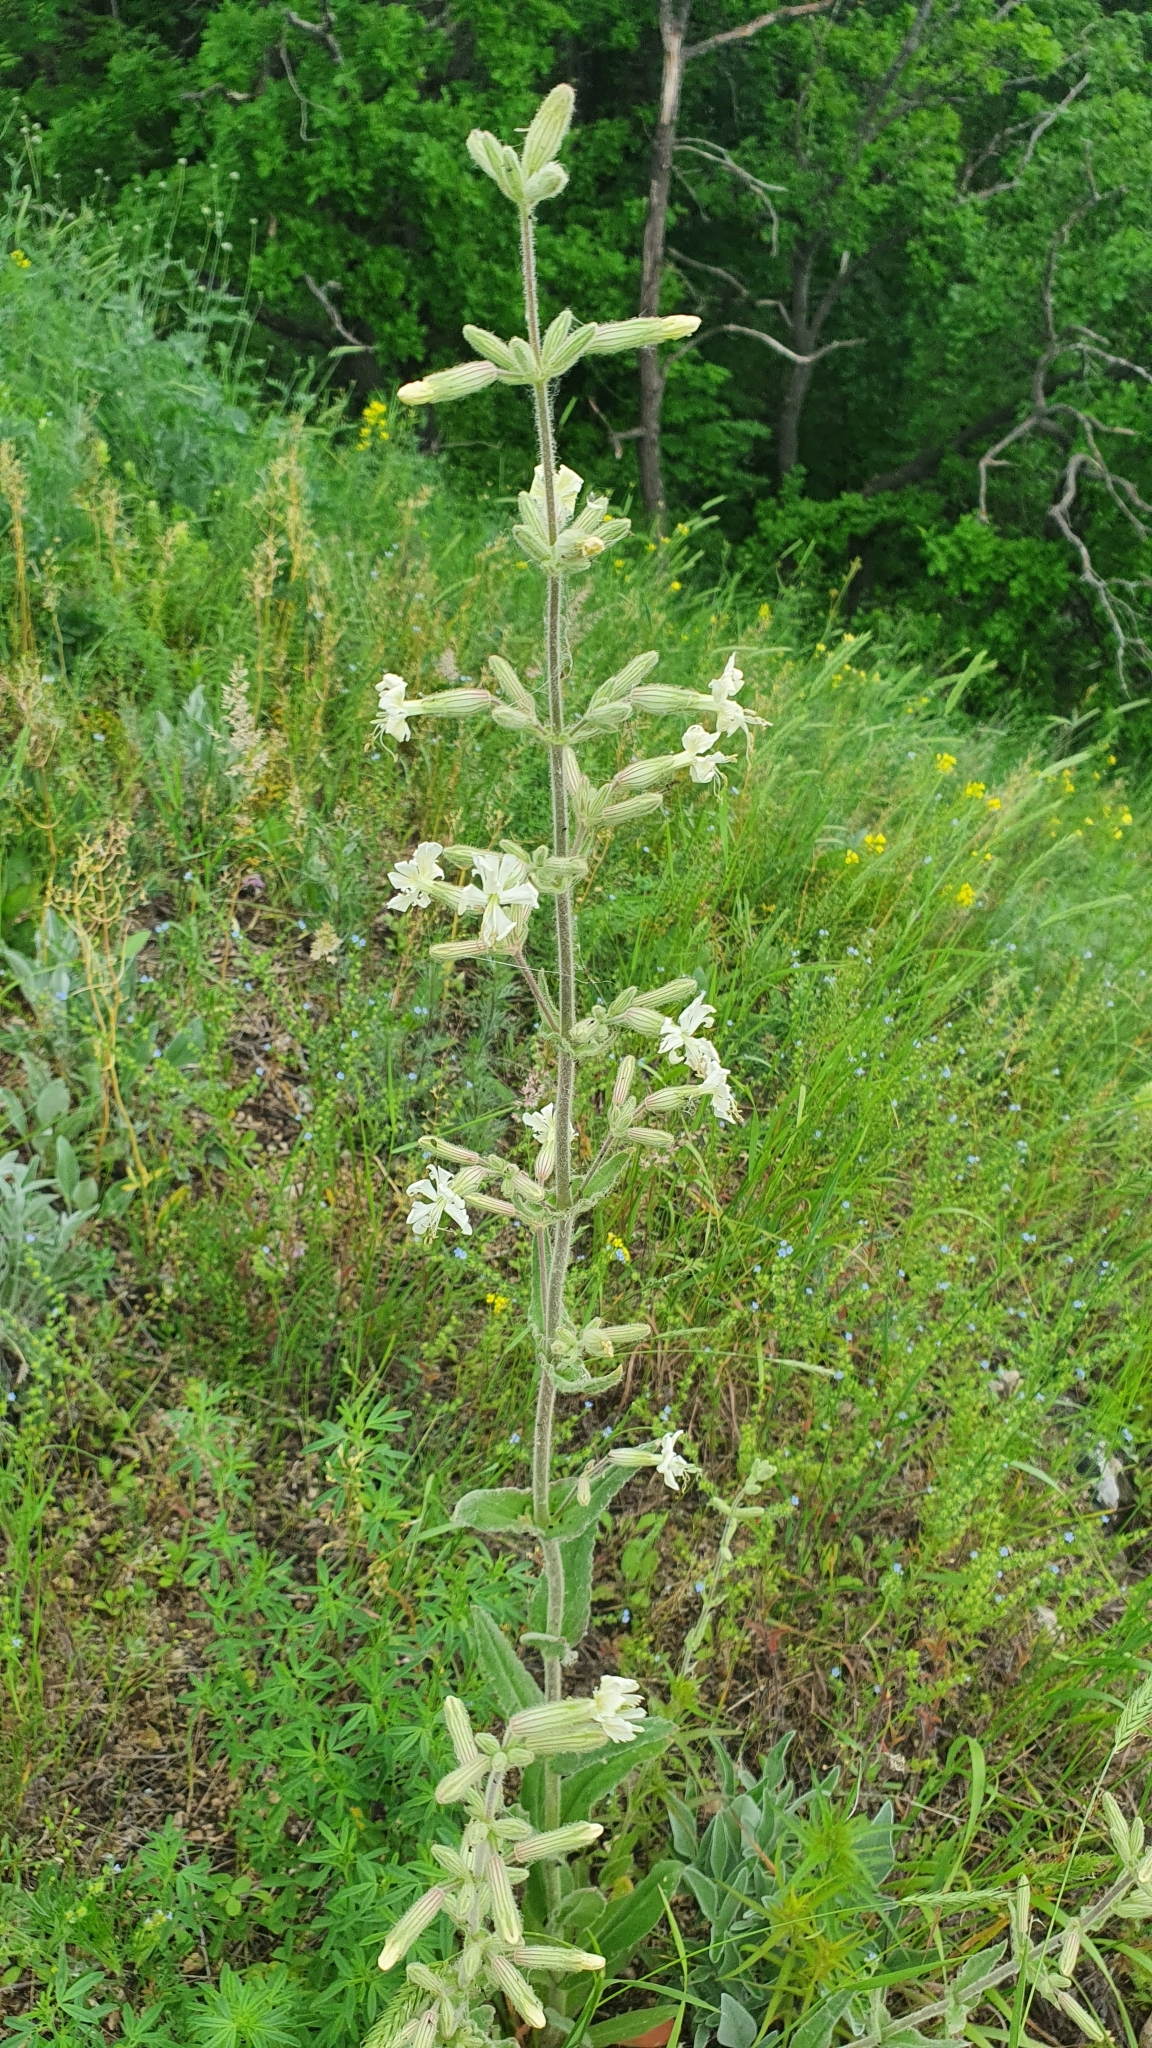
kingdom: Plantae
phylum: Tracheophyta
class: Magnoliopsida
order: Caryophyllales
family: Caryophyllaceae
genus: Silene
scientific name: Silene viscosa
